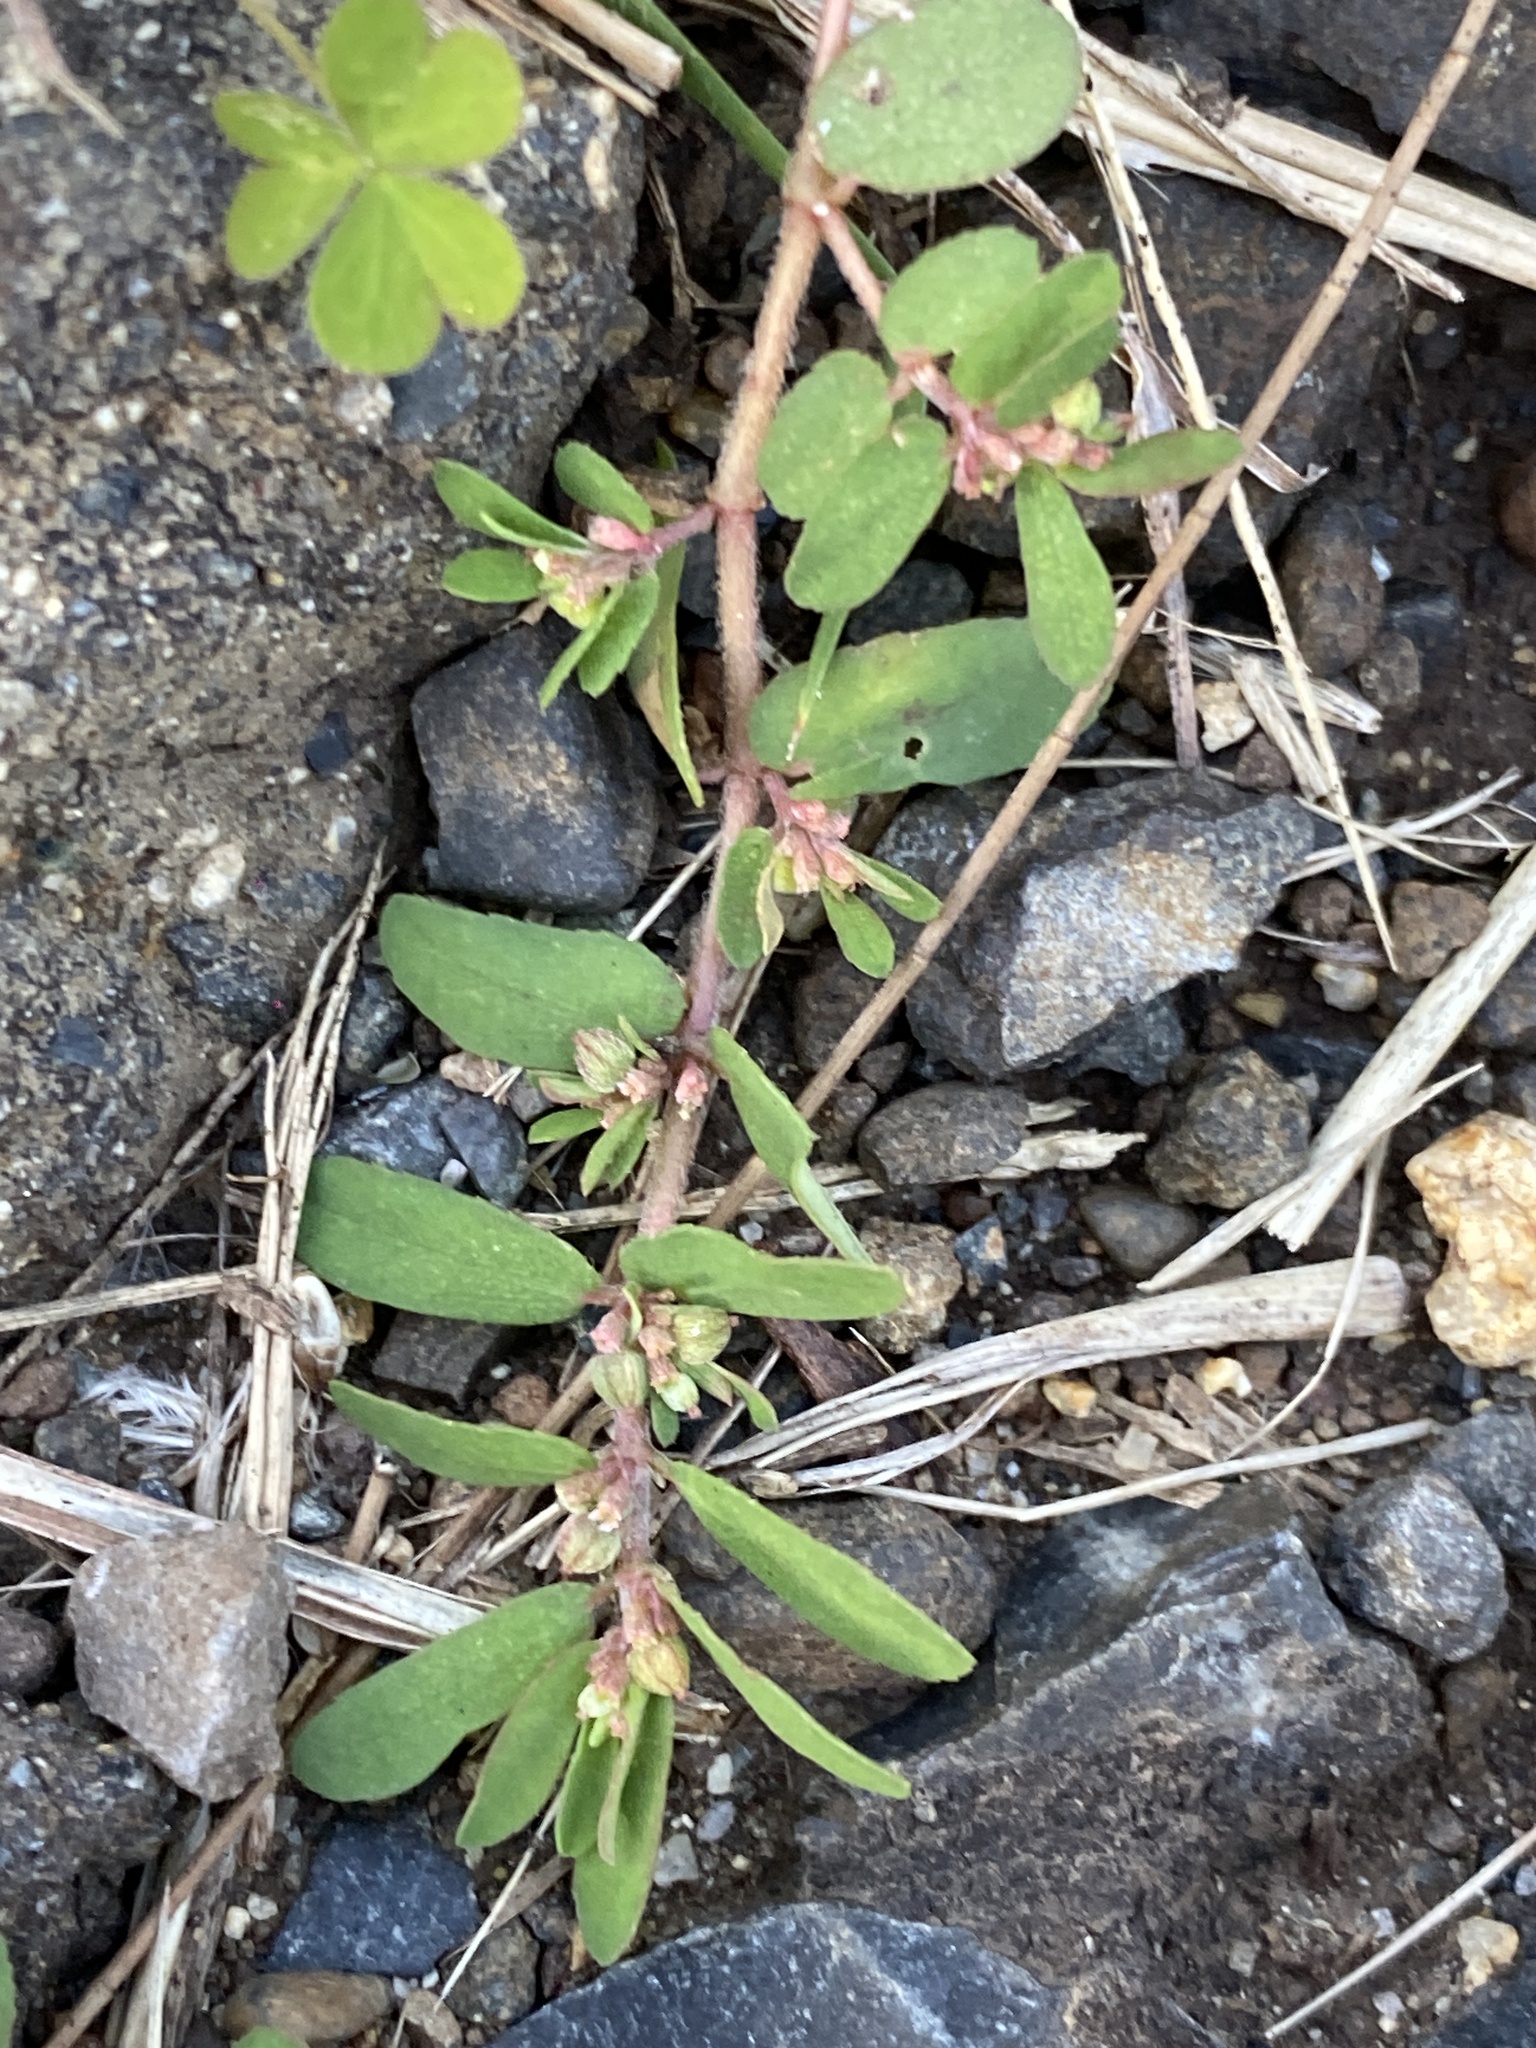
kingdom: Plantae
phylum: Tracheophyta
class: Magnoliopsida
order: Malpighiales
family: Euphorbiaceae
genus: Euphorbia
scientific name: Euphorbia maculata
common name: Spotted spurge
